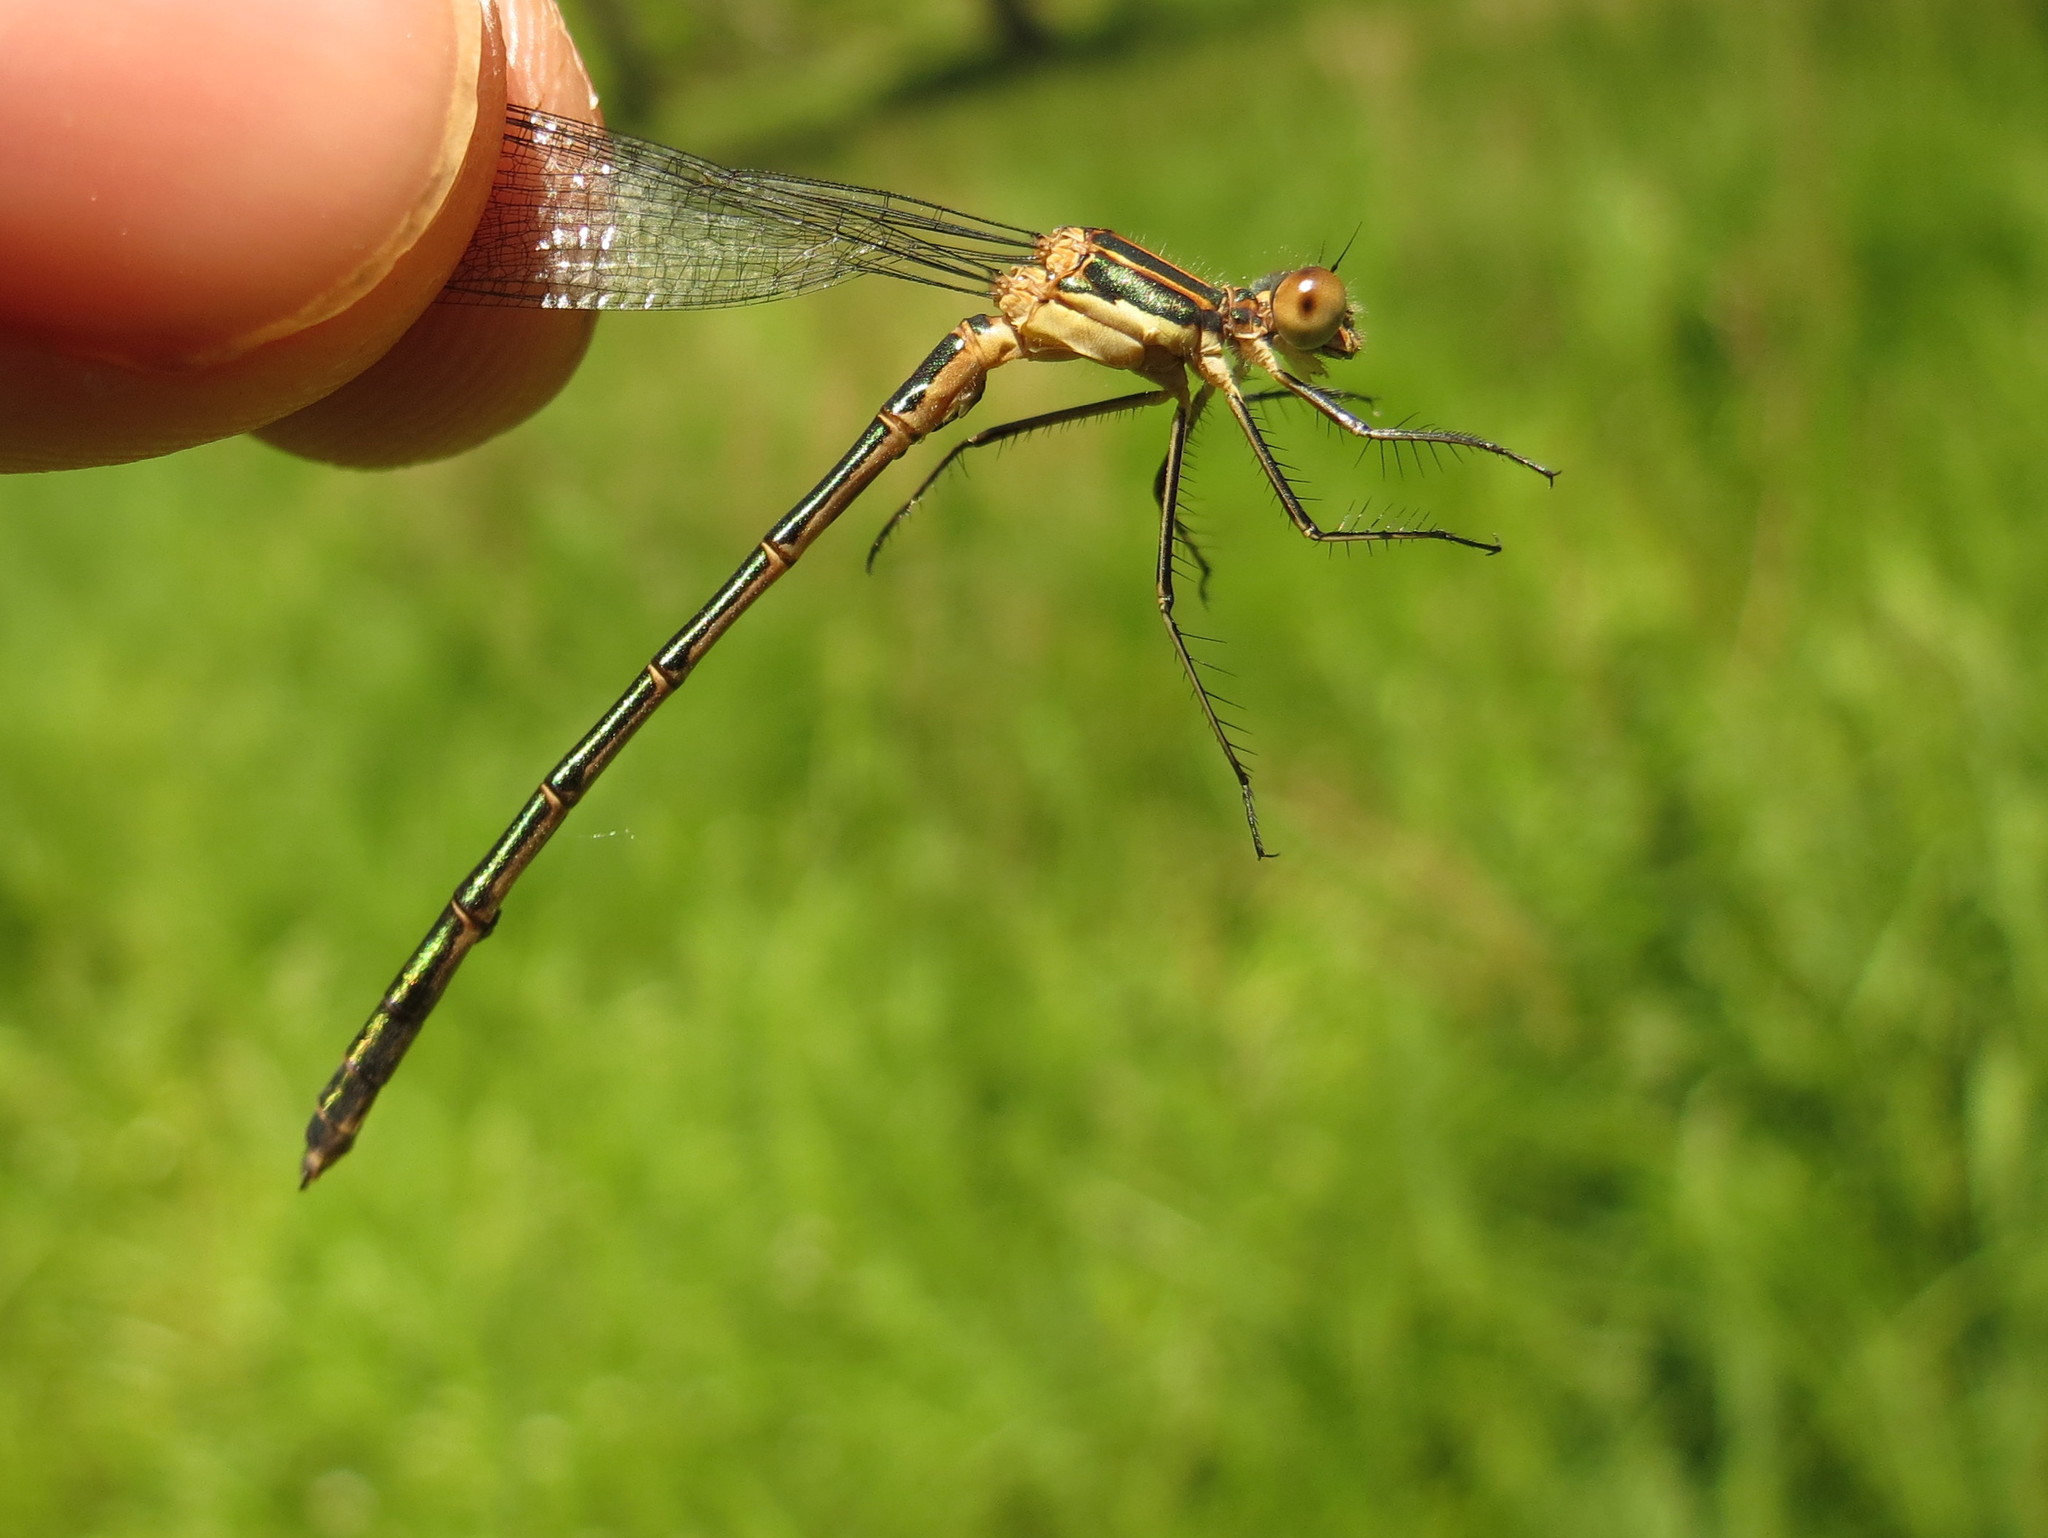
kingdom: Animalia
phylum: Arthropoda
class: Insecta
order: Odonata
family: Lestidae
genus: Lestes
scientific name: Lestes dryas
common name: Scarce emerald damselfly
